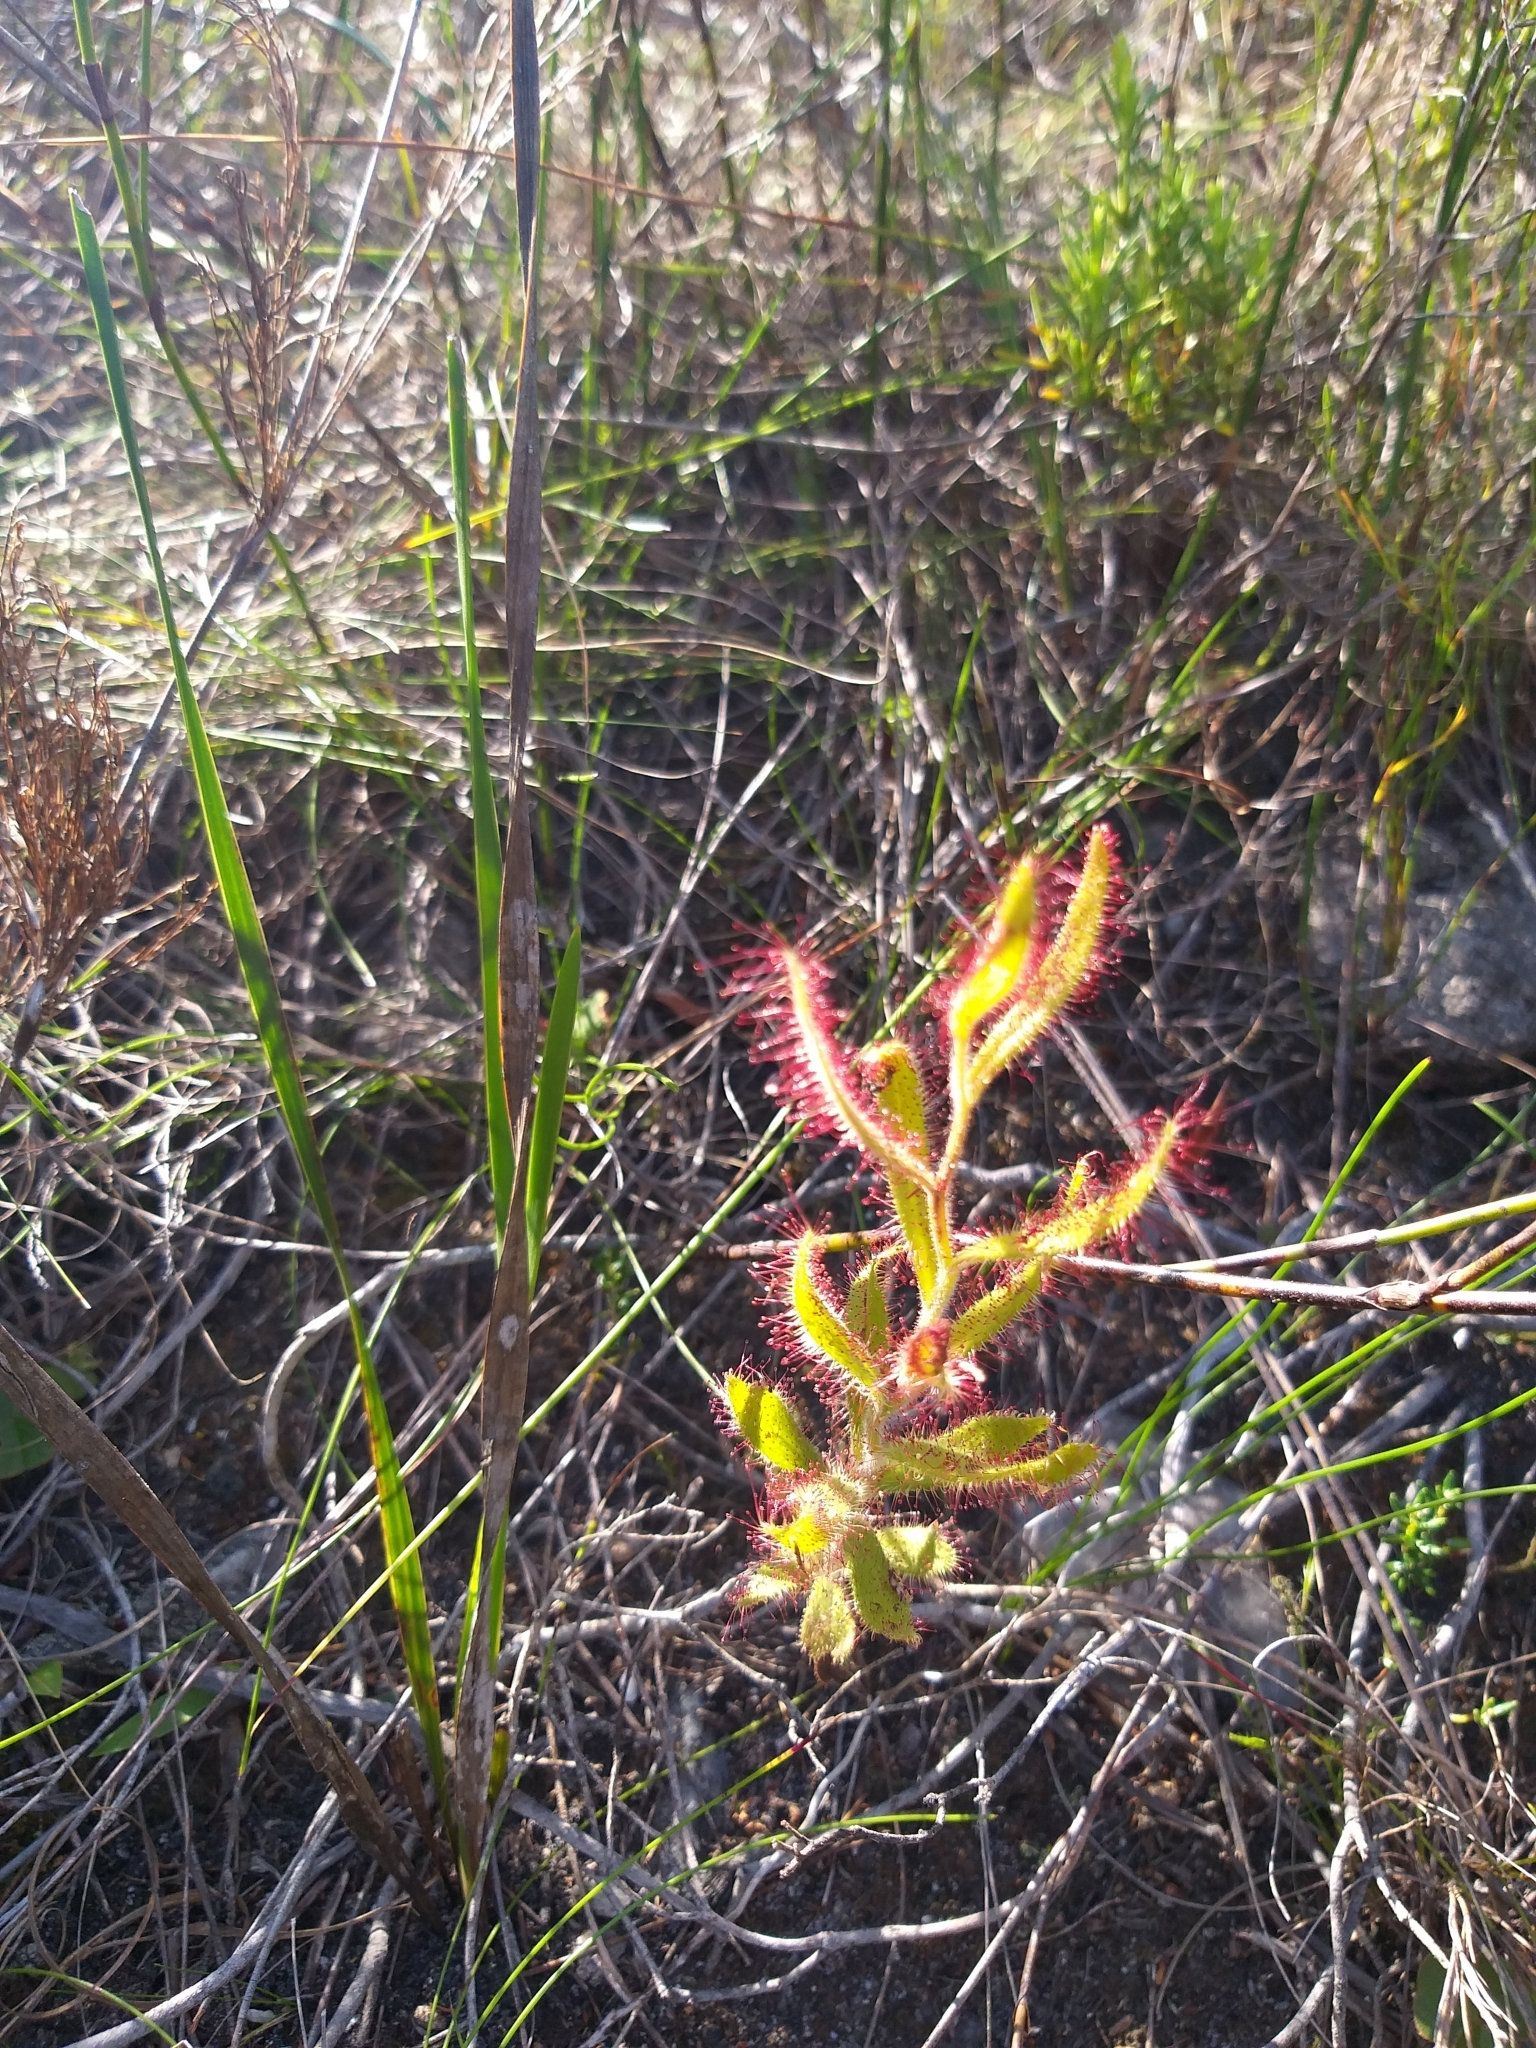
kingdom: Plantae
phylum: Tracheophyta
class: Magnoliopsida
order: Caryophyllales
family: Droseraceae
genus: Drosera
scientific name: Drosera cistiflora
